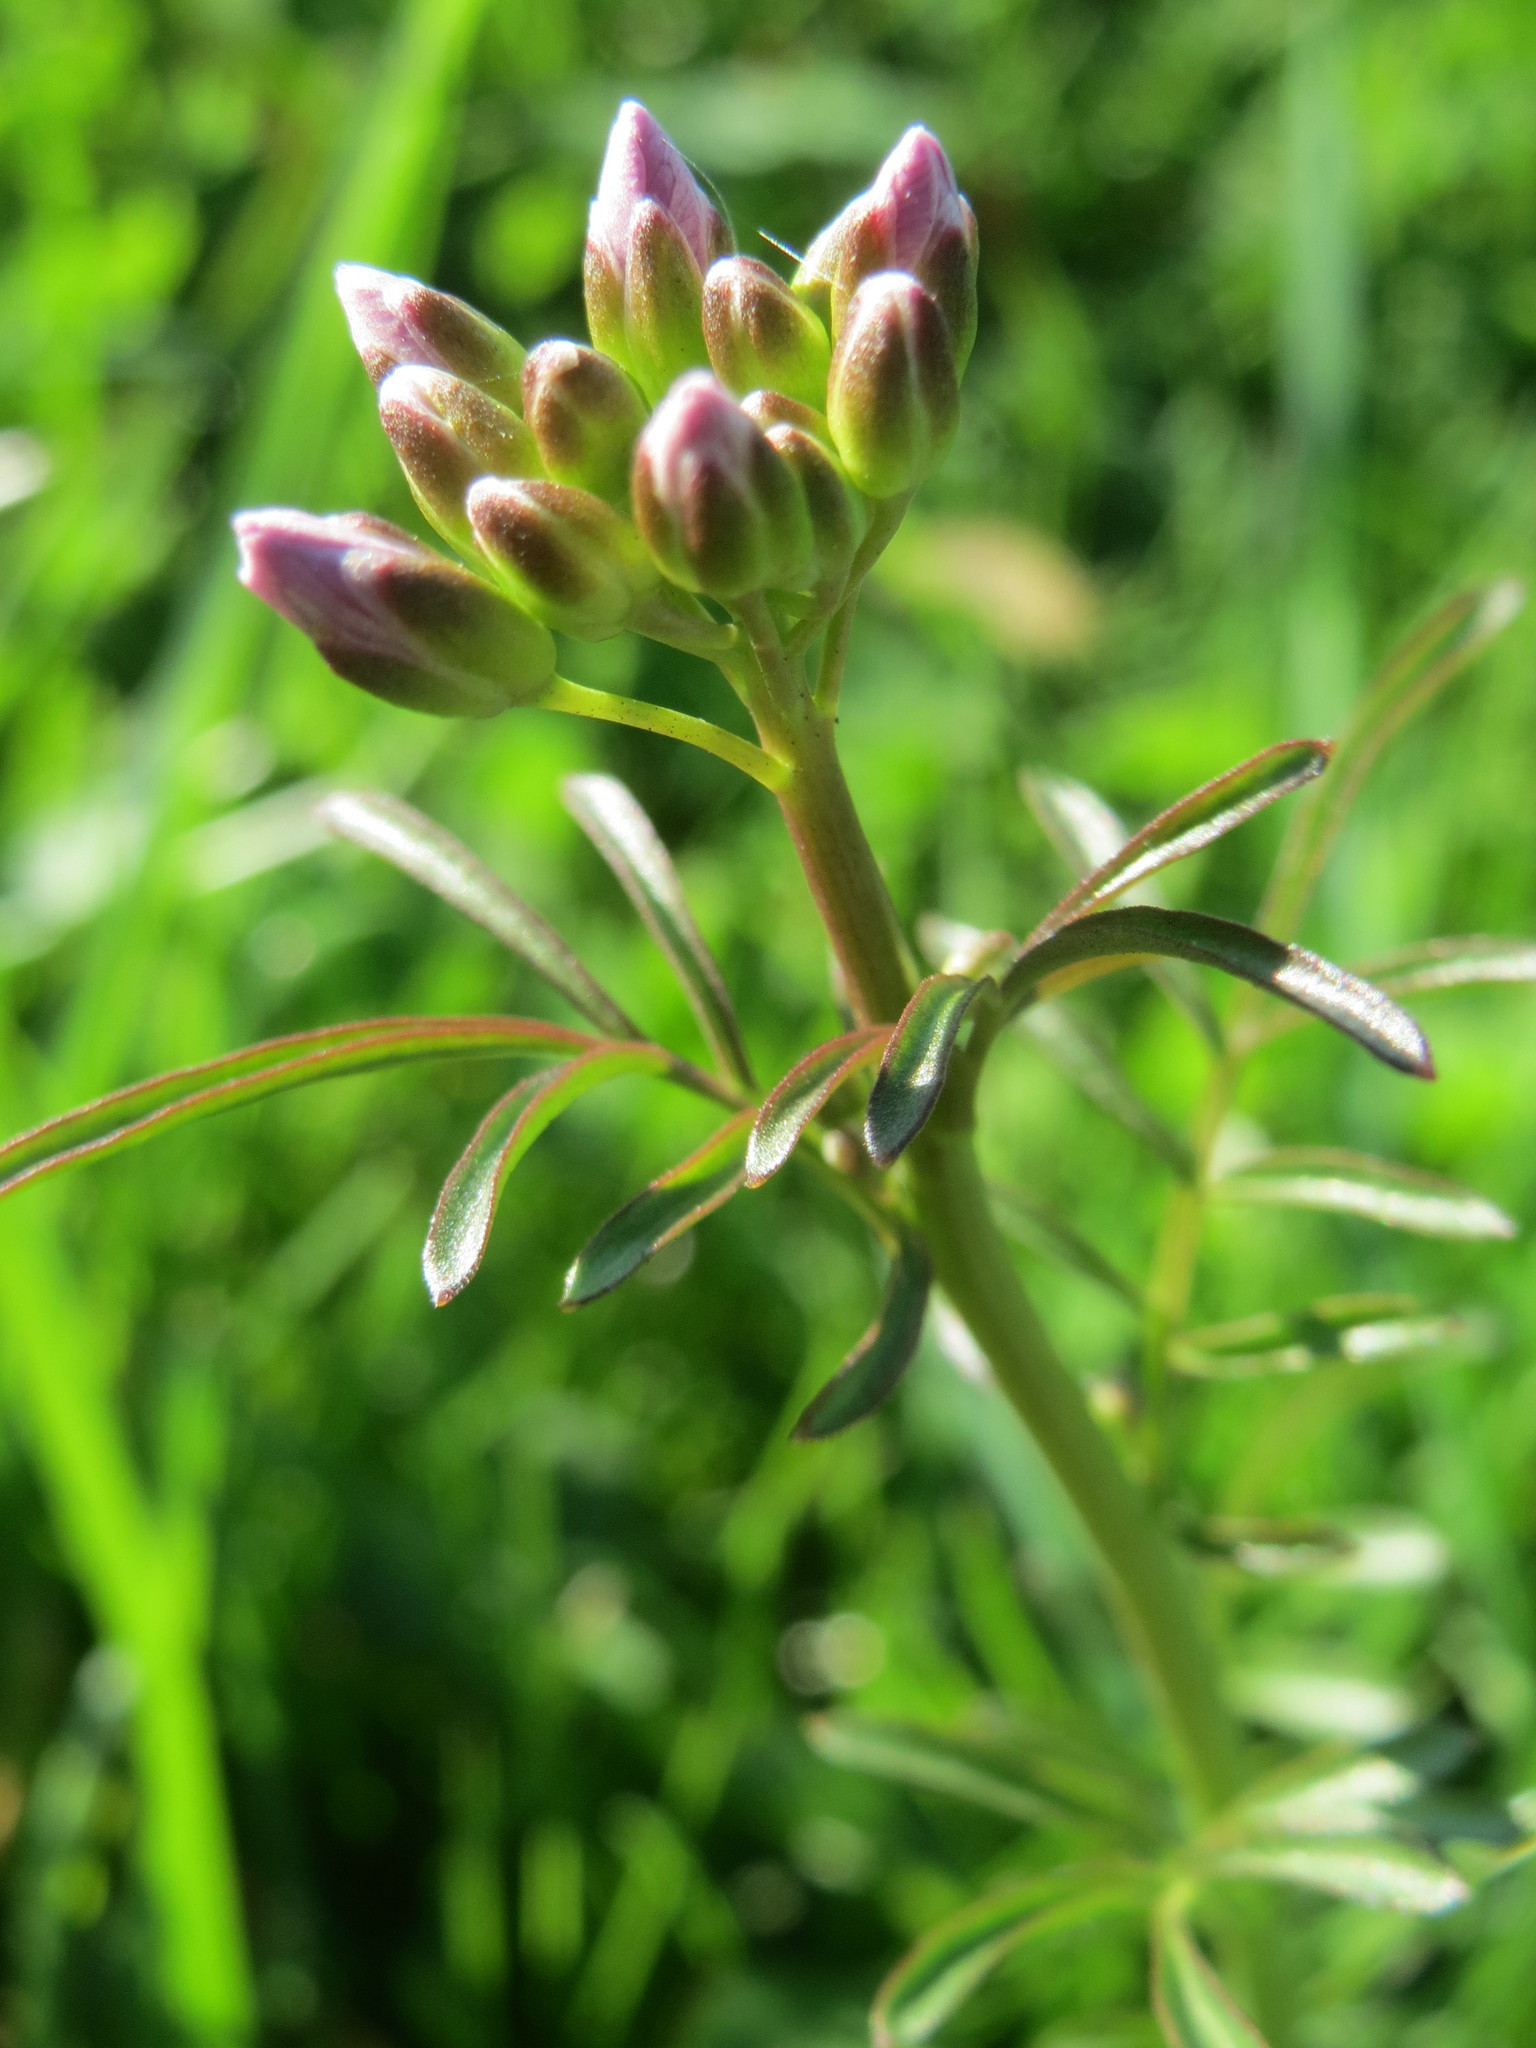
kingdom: Plantae
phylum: Tracheophyta
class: Magnoliopsida
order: Brassicales
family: Brassicaceae
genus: Cardamine
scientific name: Cardamine pratensis
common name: Cuckoo flower
